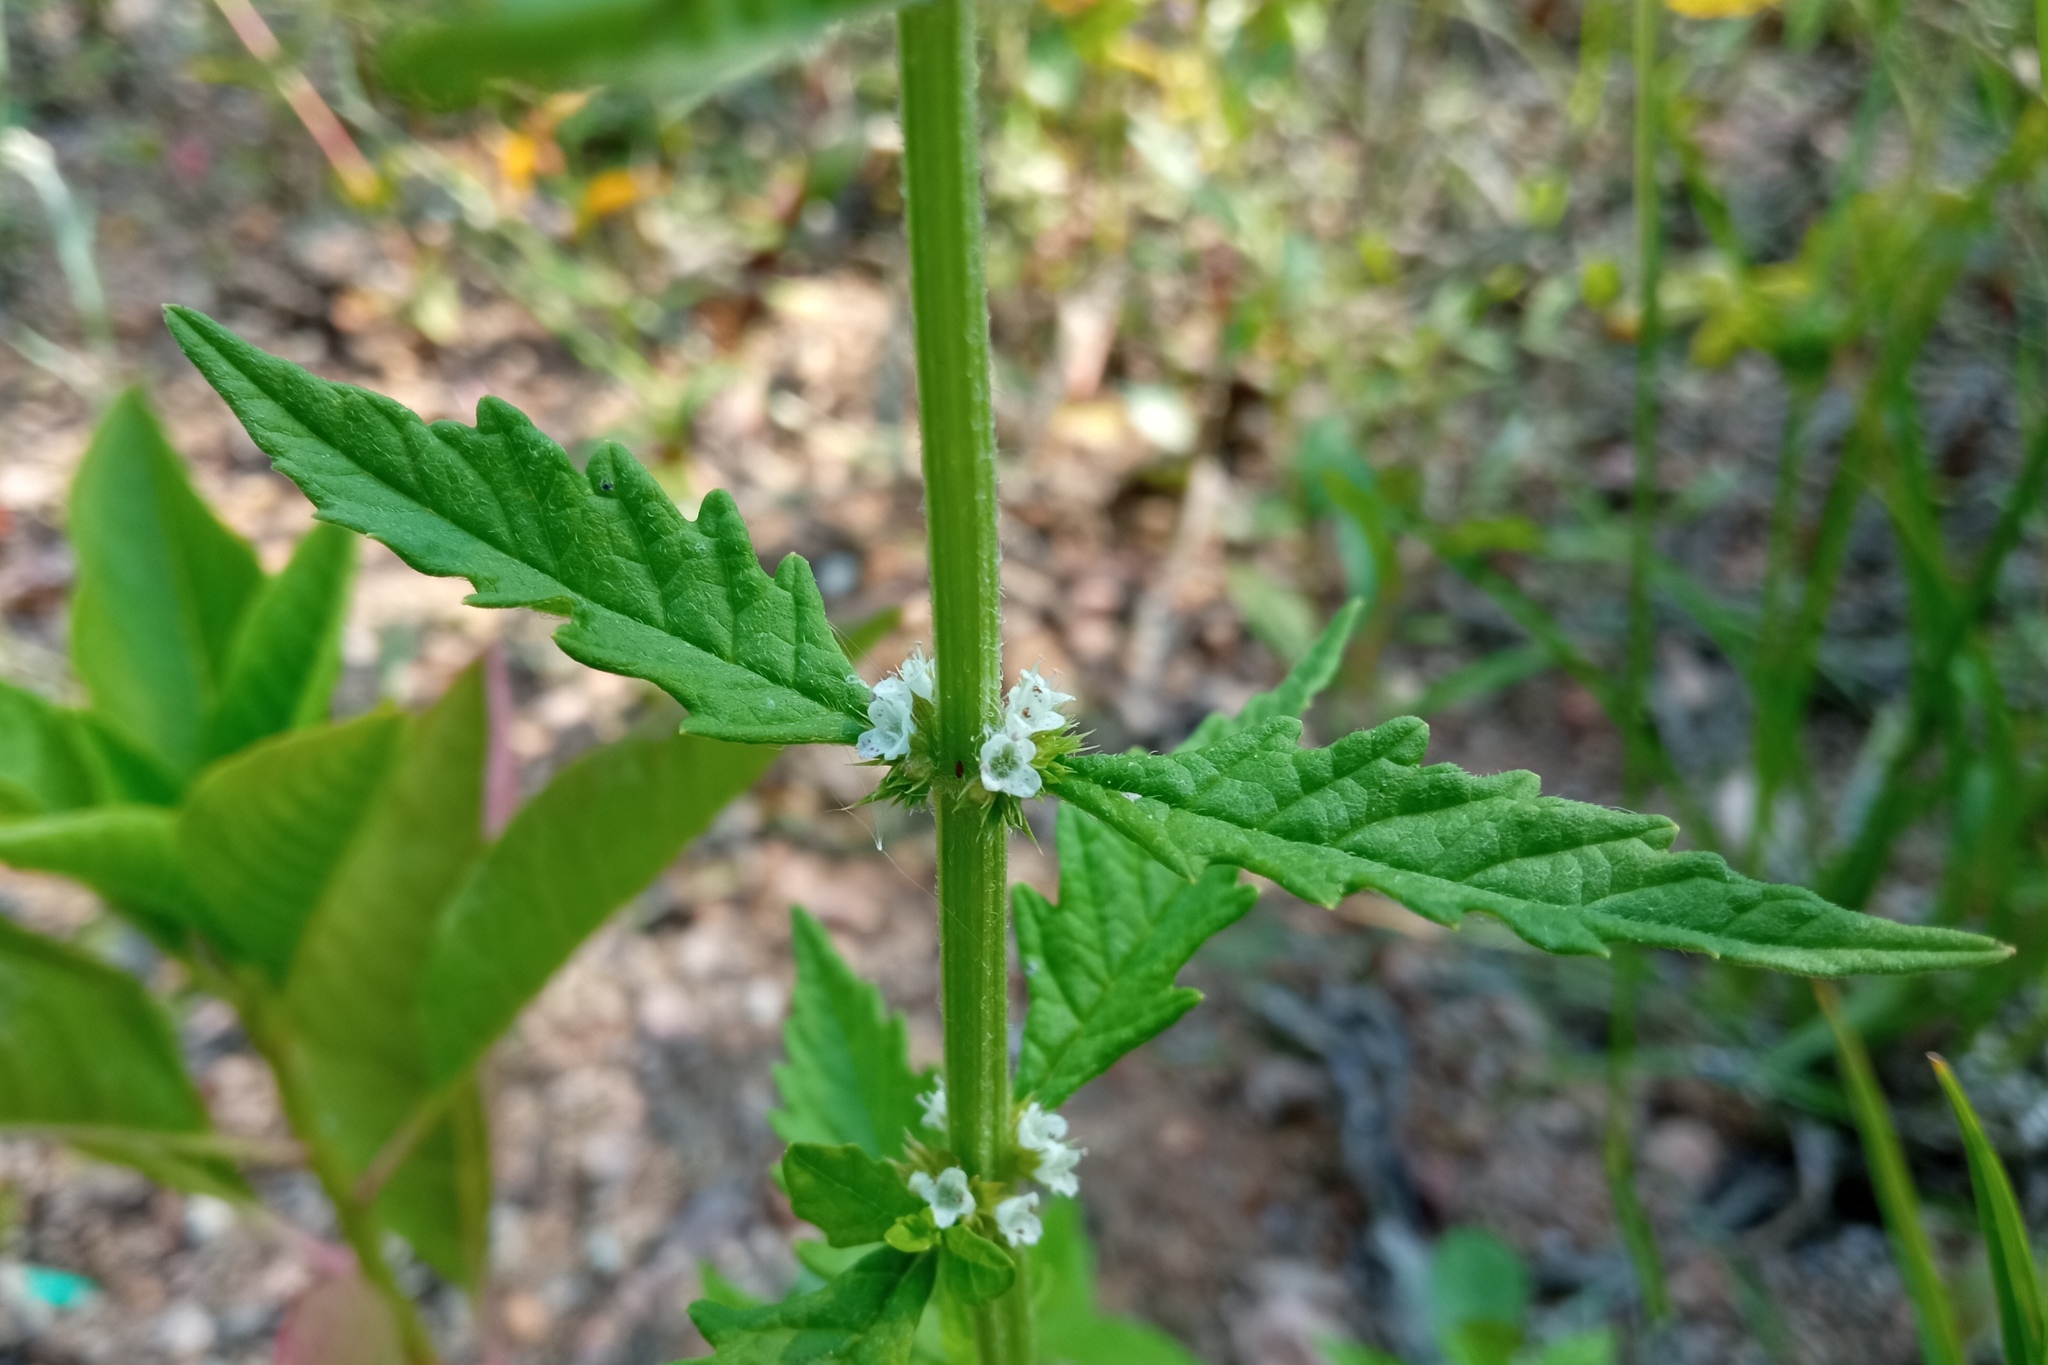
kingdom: Plantae
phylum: Tracheophyta
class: Magnoliopsida
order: Lamiales
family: Lamiaceae
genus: Lycopus
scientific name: Lycopus europaeus
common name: European bugleweed
